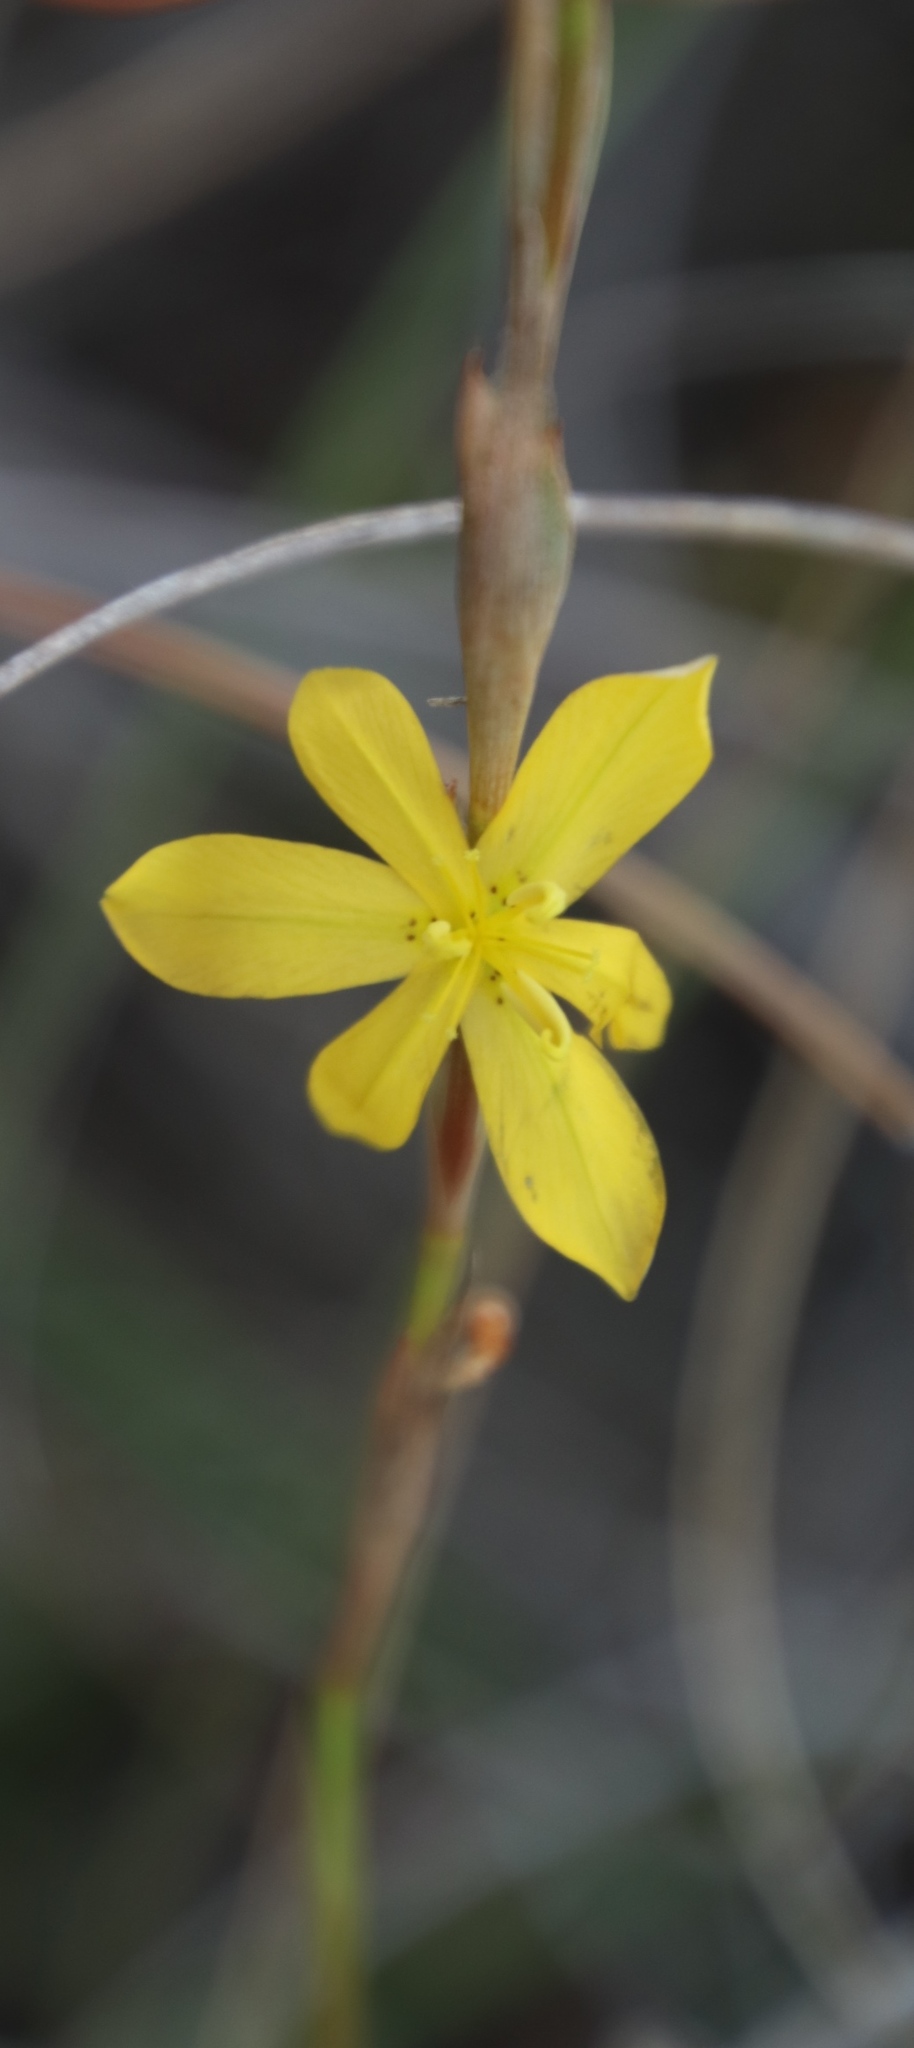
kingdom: Plantae
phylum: Tracheophyta
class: Liliopsida
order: Asparagales
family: Iridaceae
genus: Moraea
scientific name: Moraea lewisiae
